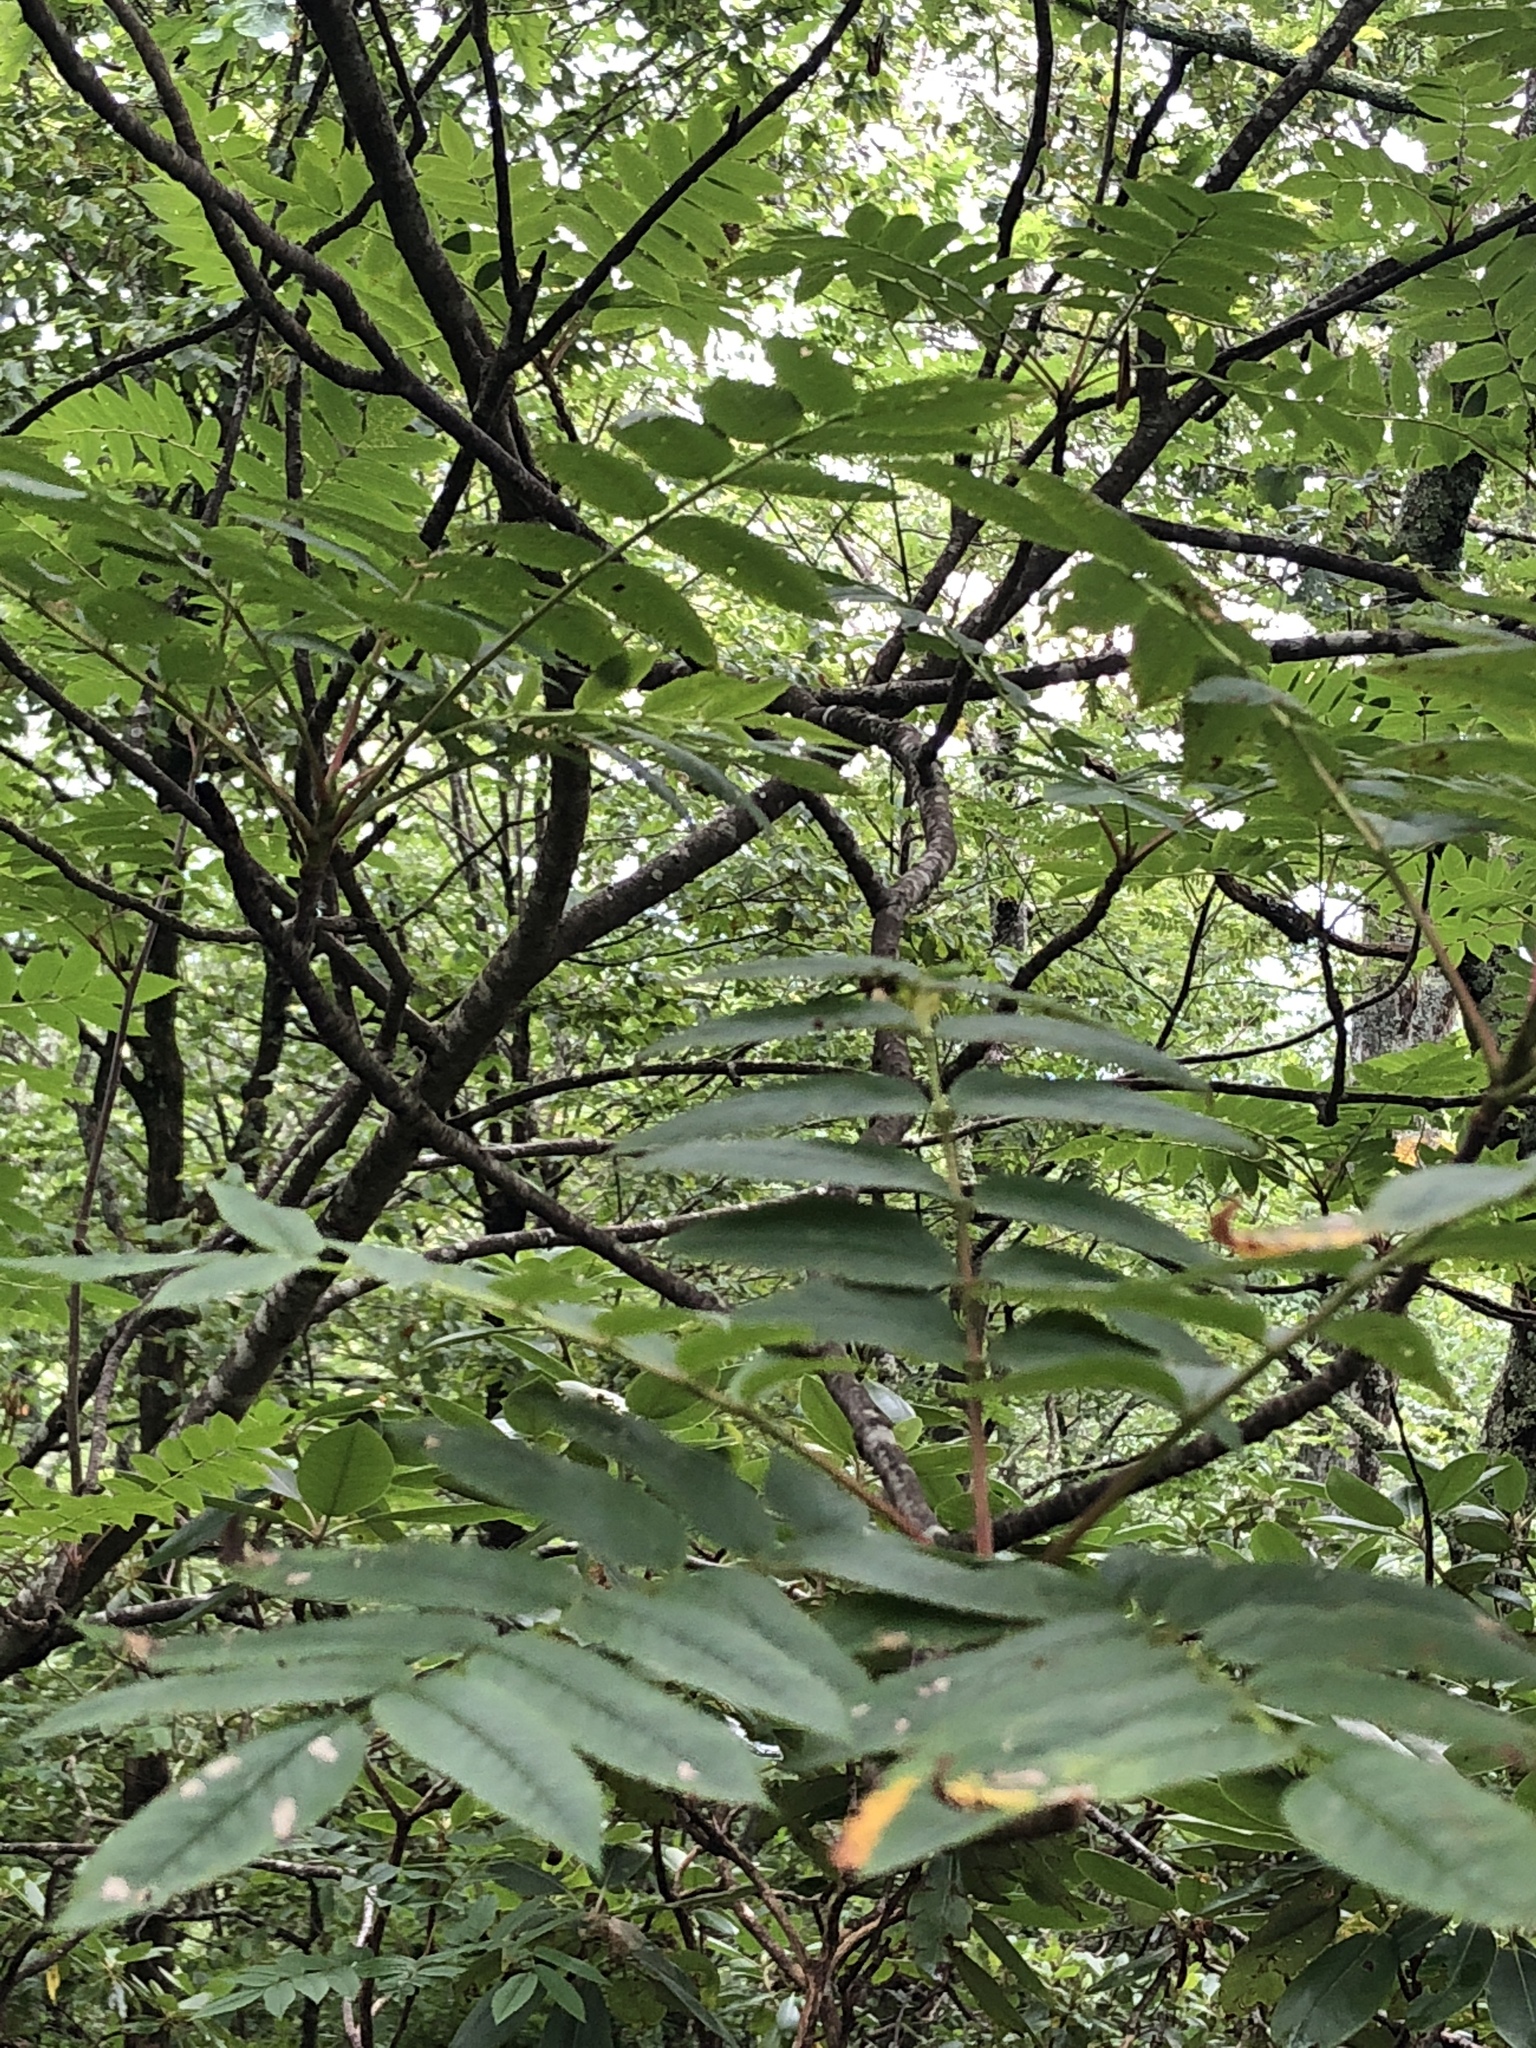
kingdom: Plantae
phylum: Tracheophyta
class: Magnoliopsida
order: Rosales
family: Rosaceae
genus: Sorbus
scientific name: Sorbus americana
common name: American mountain-ash
